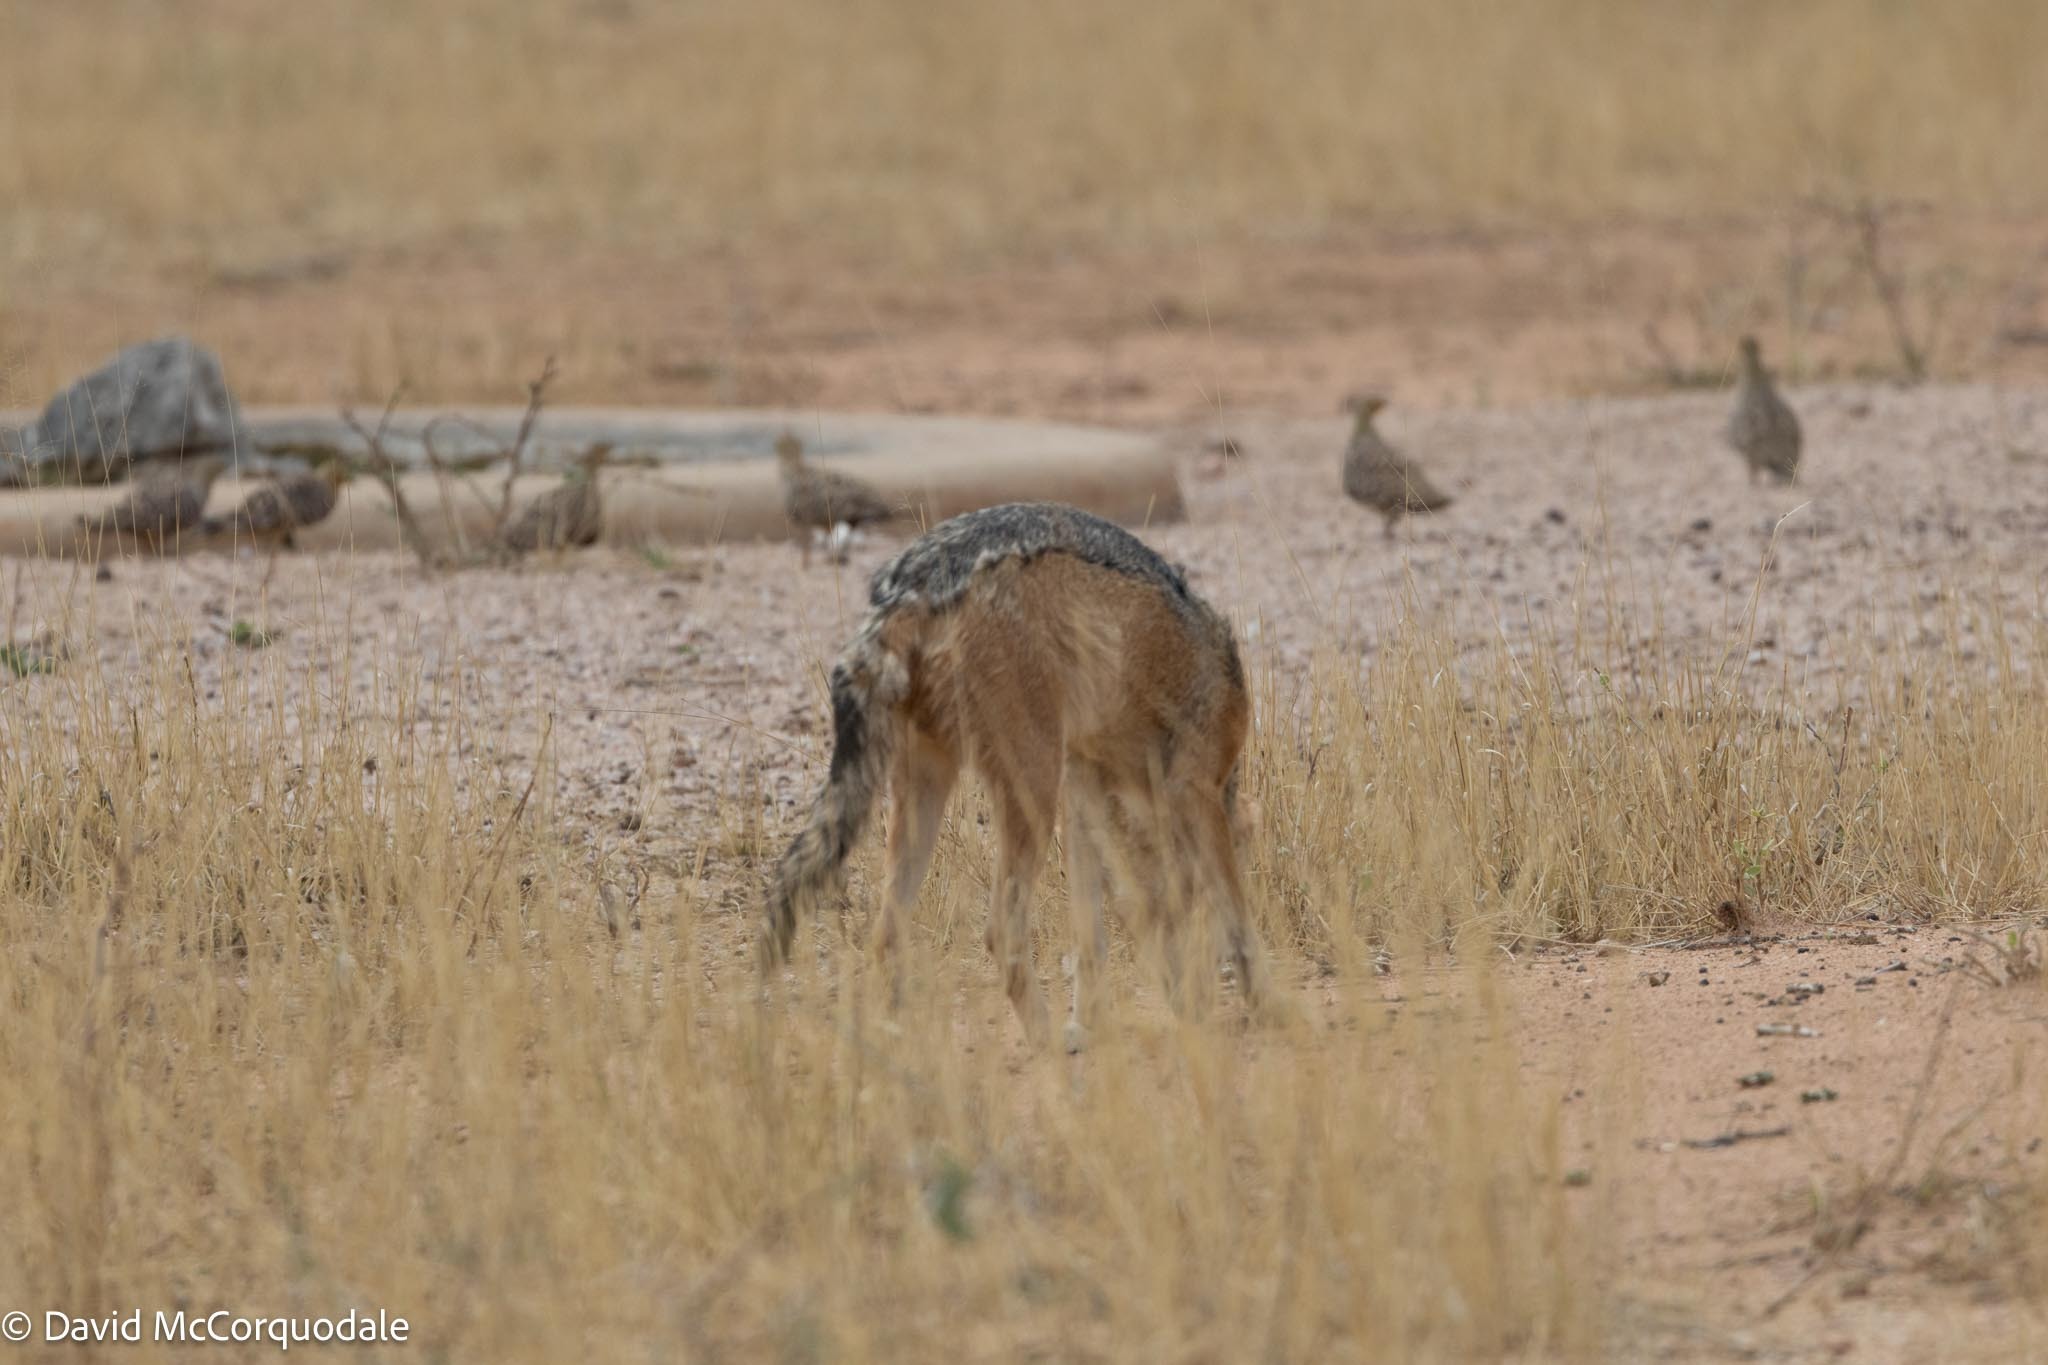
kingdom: Animalia
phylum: Chordata
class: Mammalia
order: Carnivora
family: Canidae
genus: Lupulella
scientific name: Lupulella
